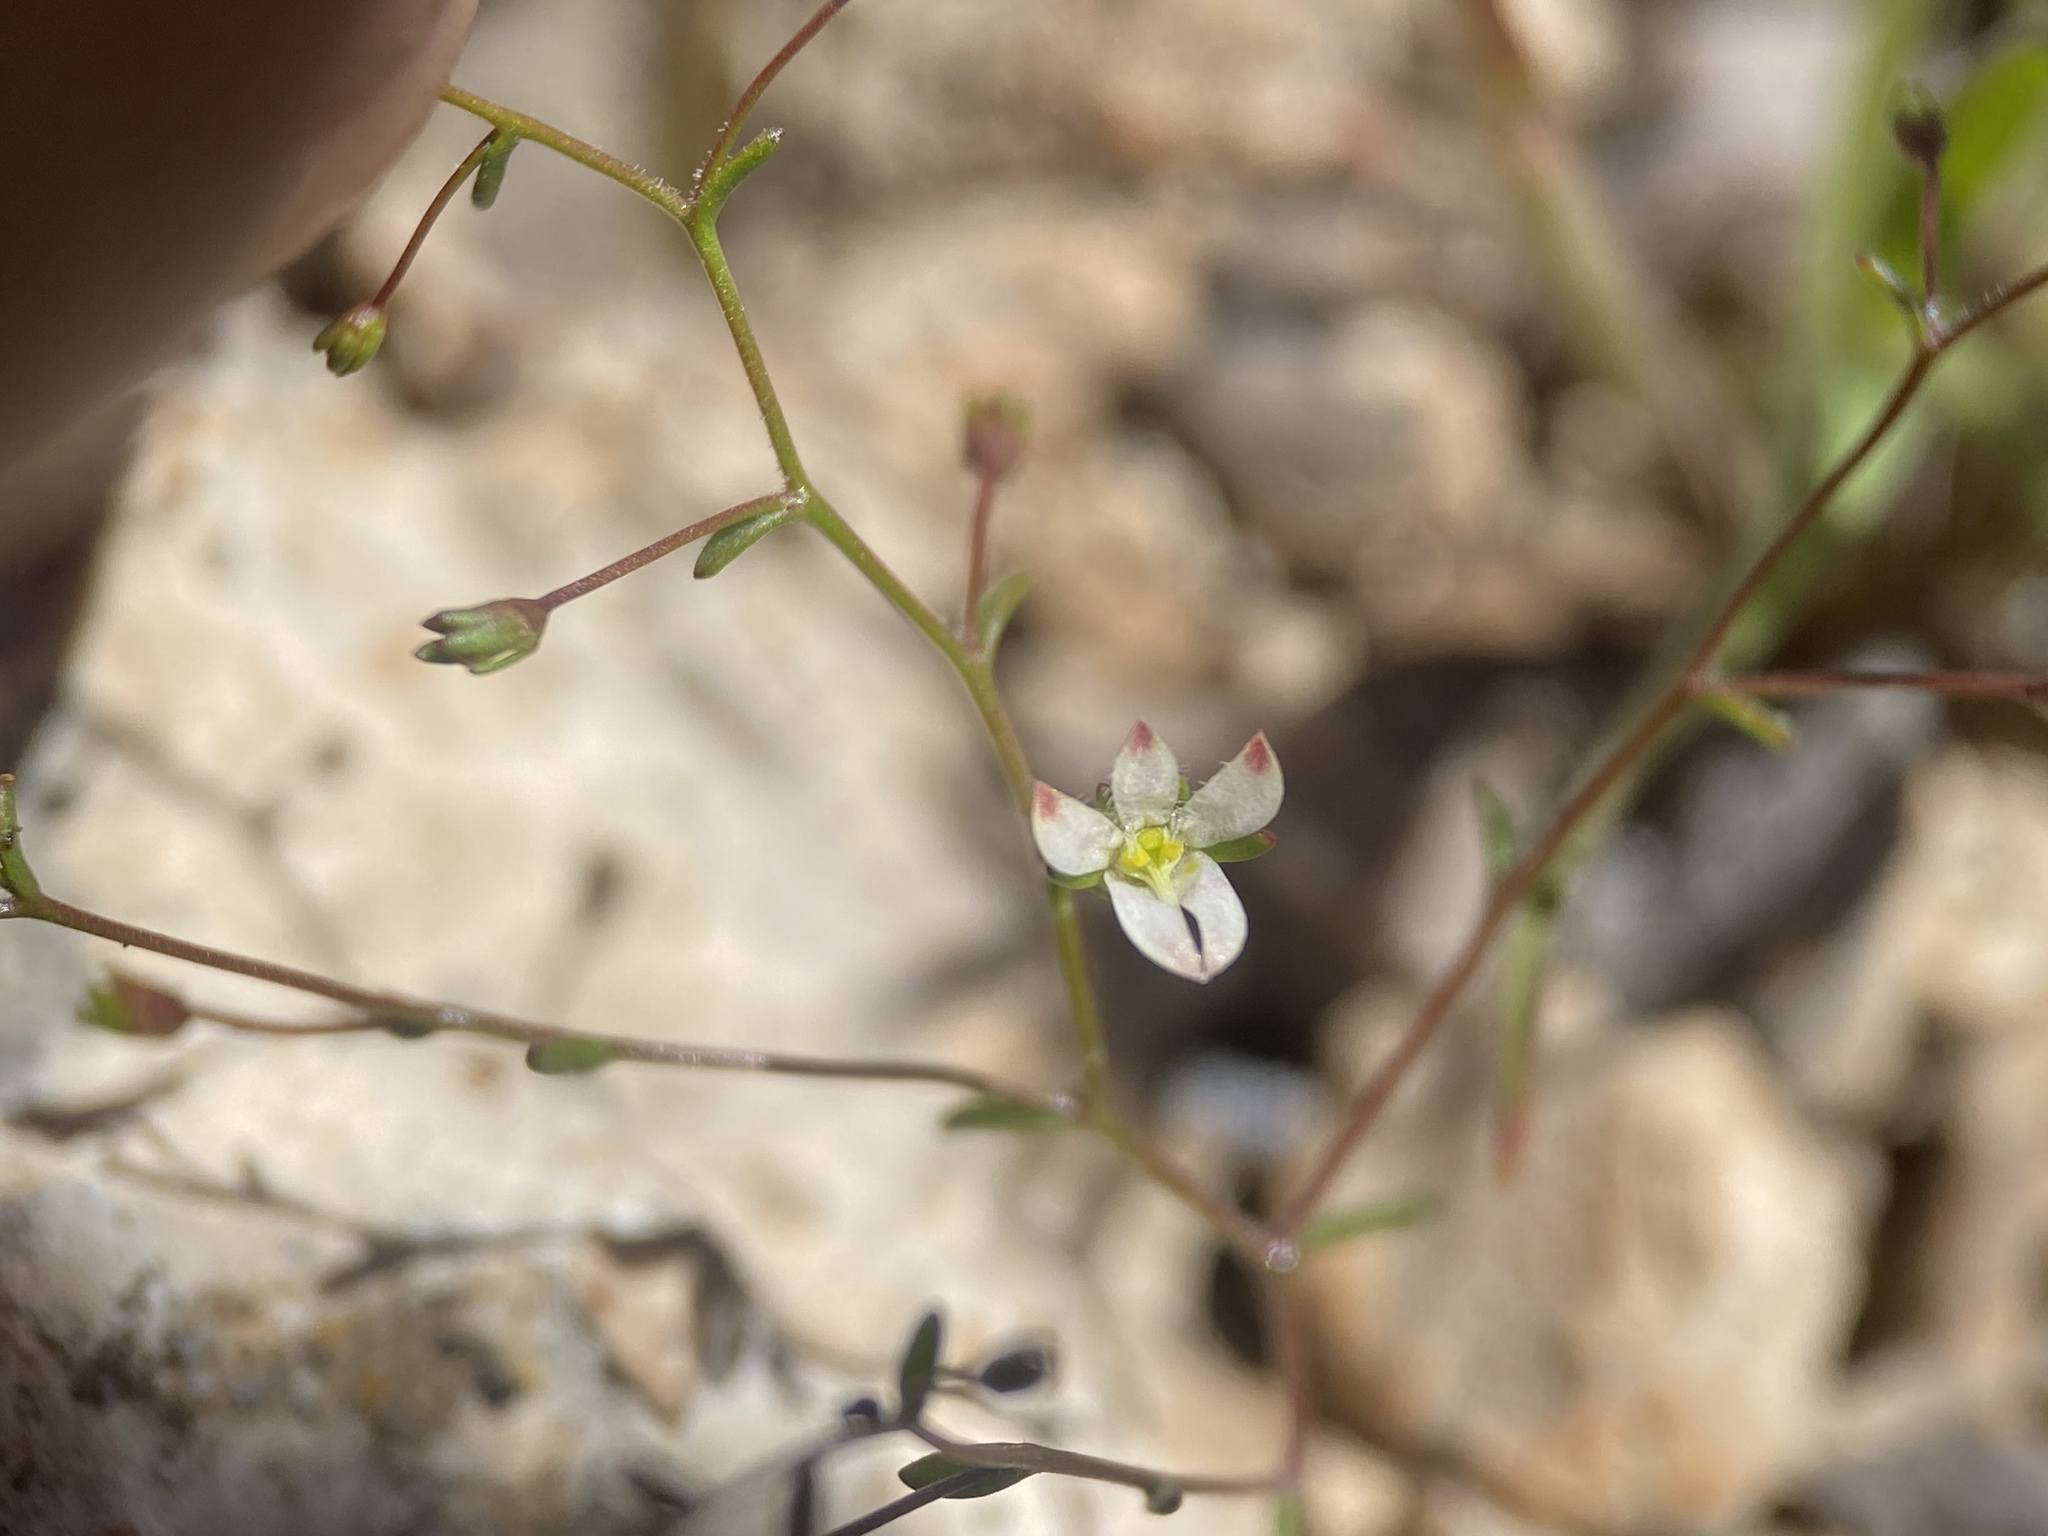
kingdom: Plantae
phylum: Tracheophyta
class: Magnoliopsida
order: Asterales
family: Campanulaceae
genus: Nemacladus
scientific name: Nemacladus orientalis
